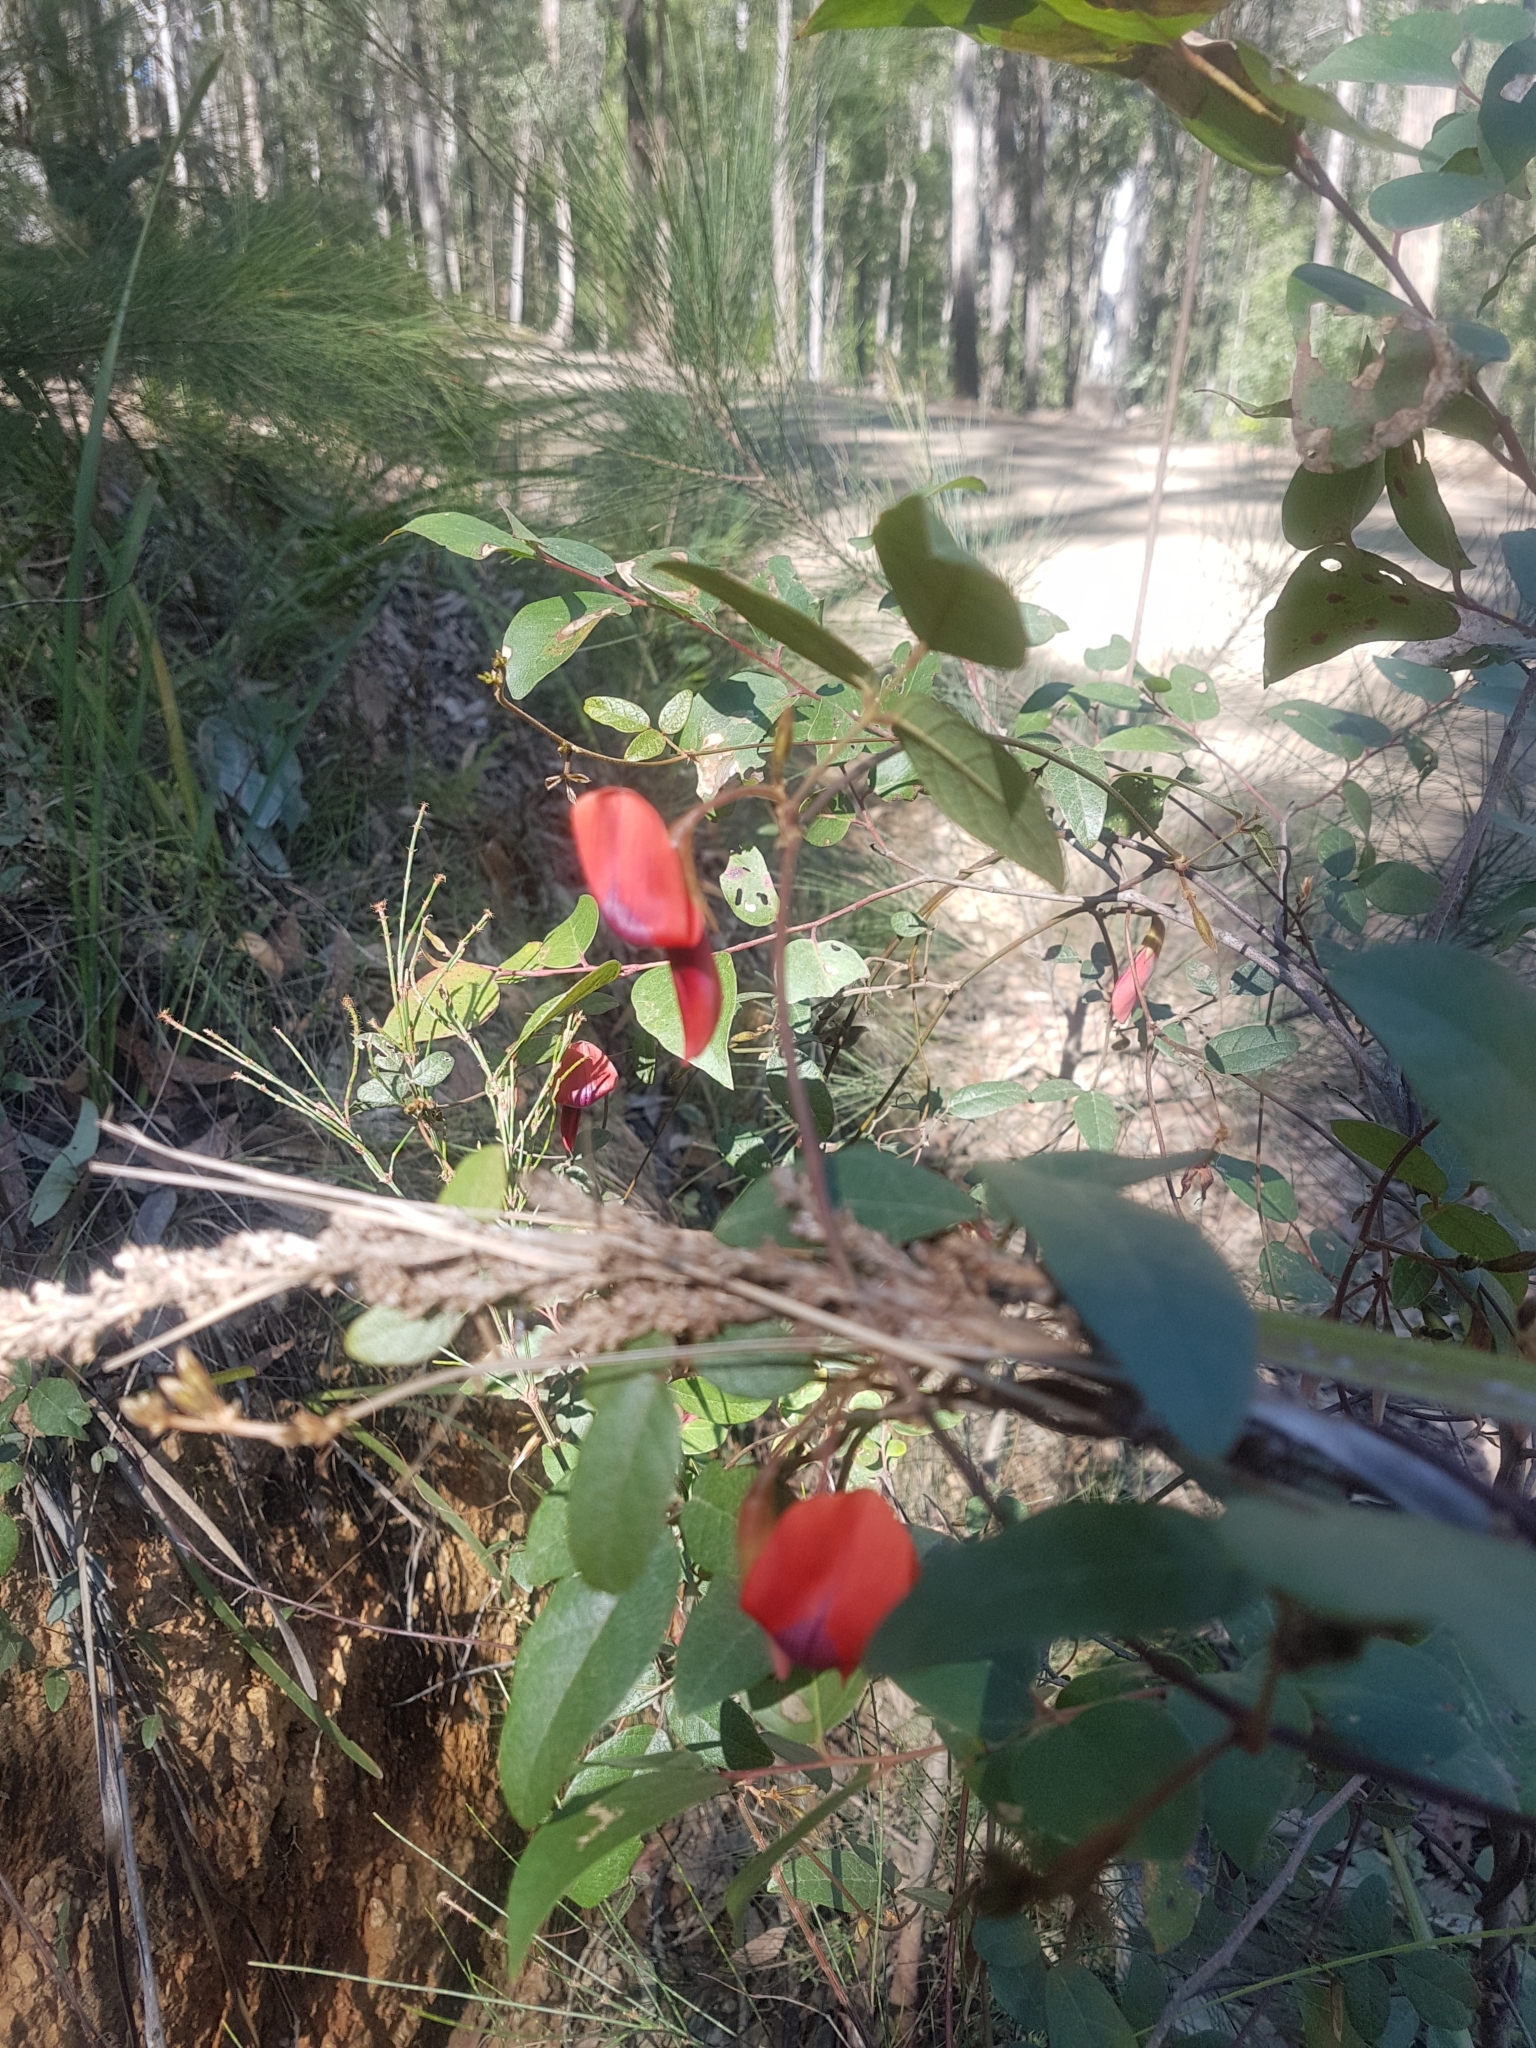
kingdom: Plantae
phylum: Tracheophyta
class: Magnoliopsida
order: Fabales
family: Fabaceae
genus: Kennedia
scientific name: Kennedia rubicunda
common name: Red kennedy-pea
